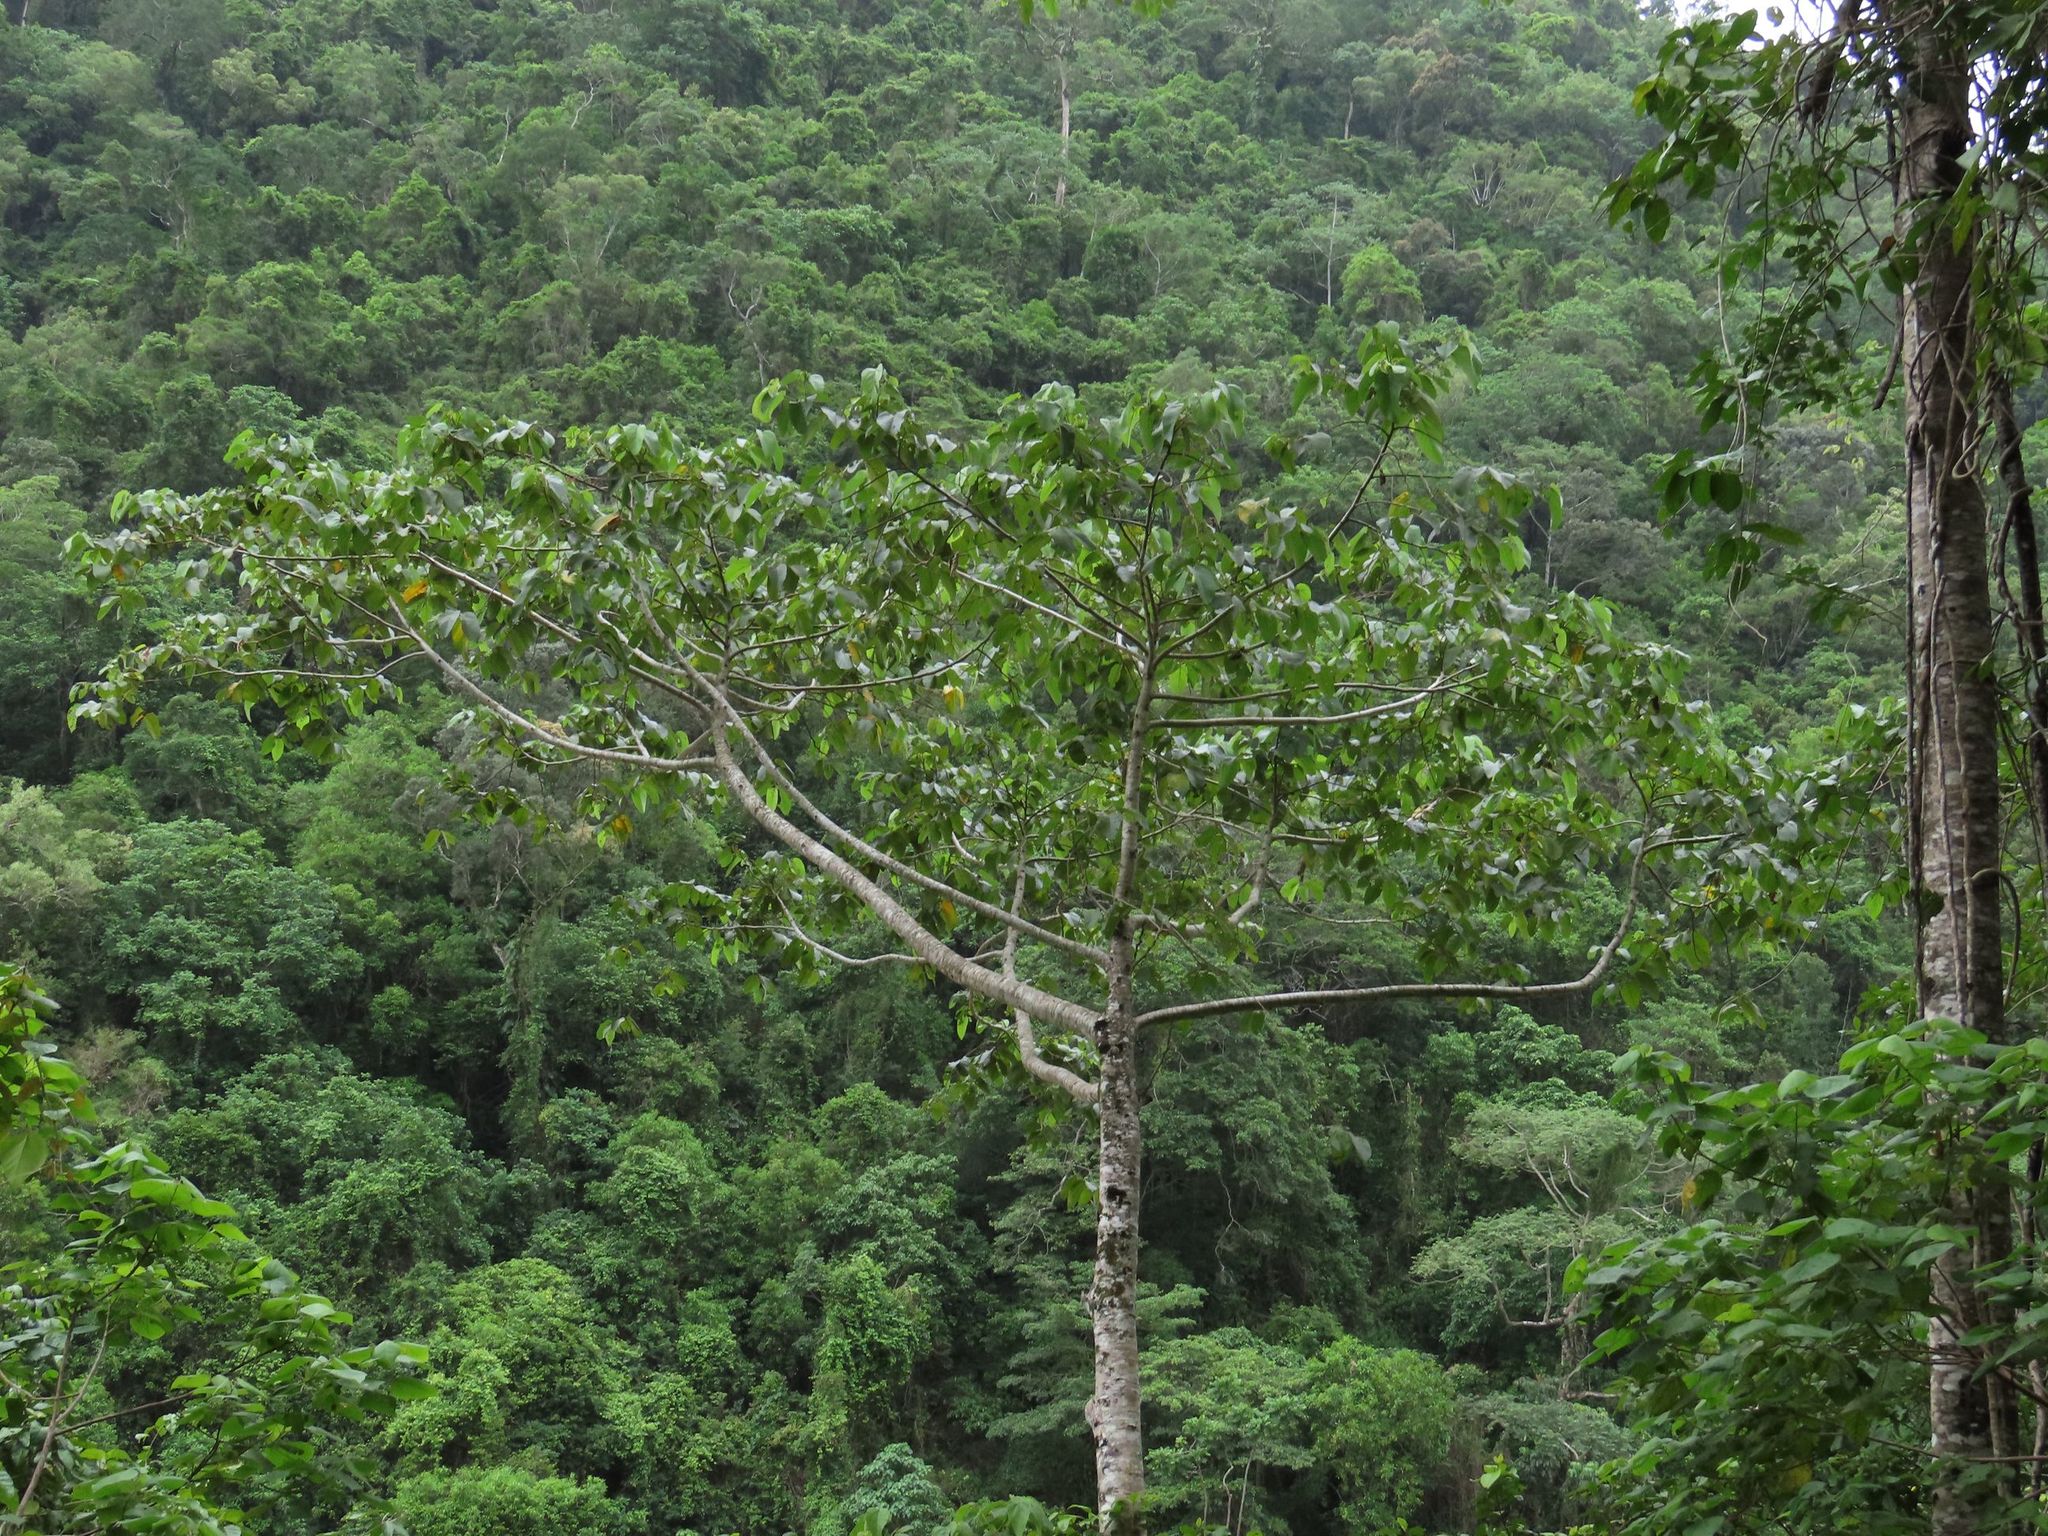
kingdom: Plantae
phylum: Tracheophyta
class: Magnoliopsida
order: Malvales
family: Malvaceae
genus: Trichospermum
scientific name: Trichospermum pleiostigma
